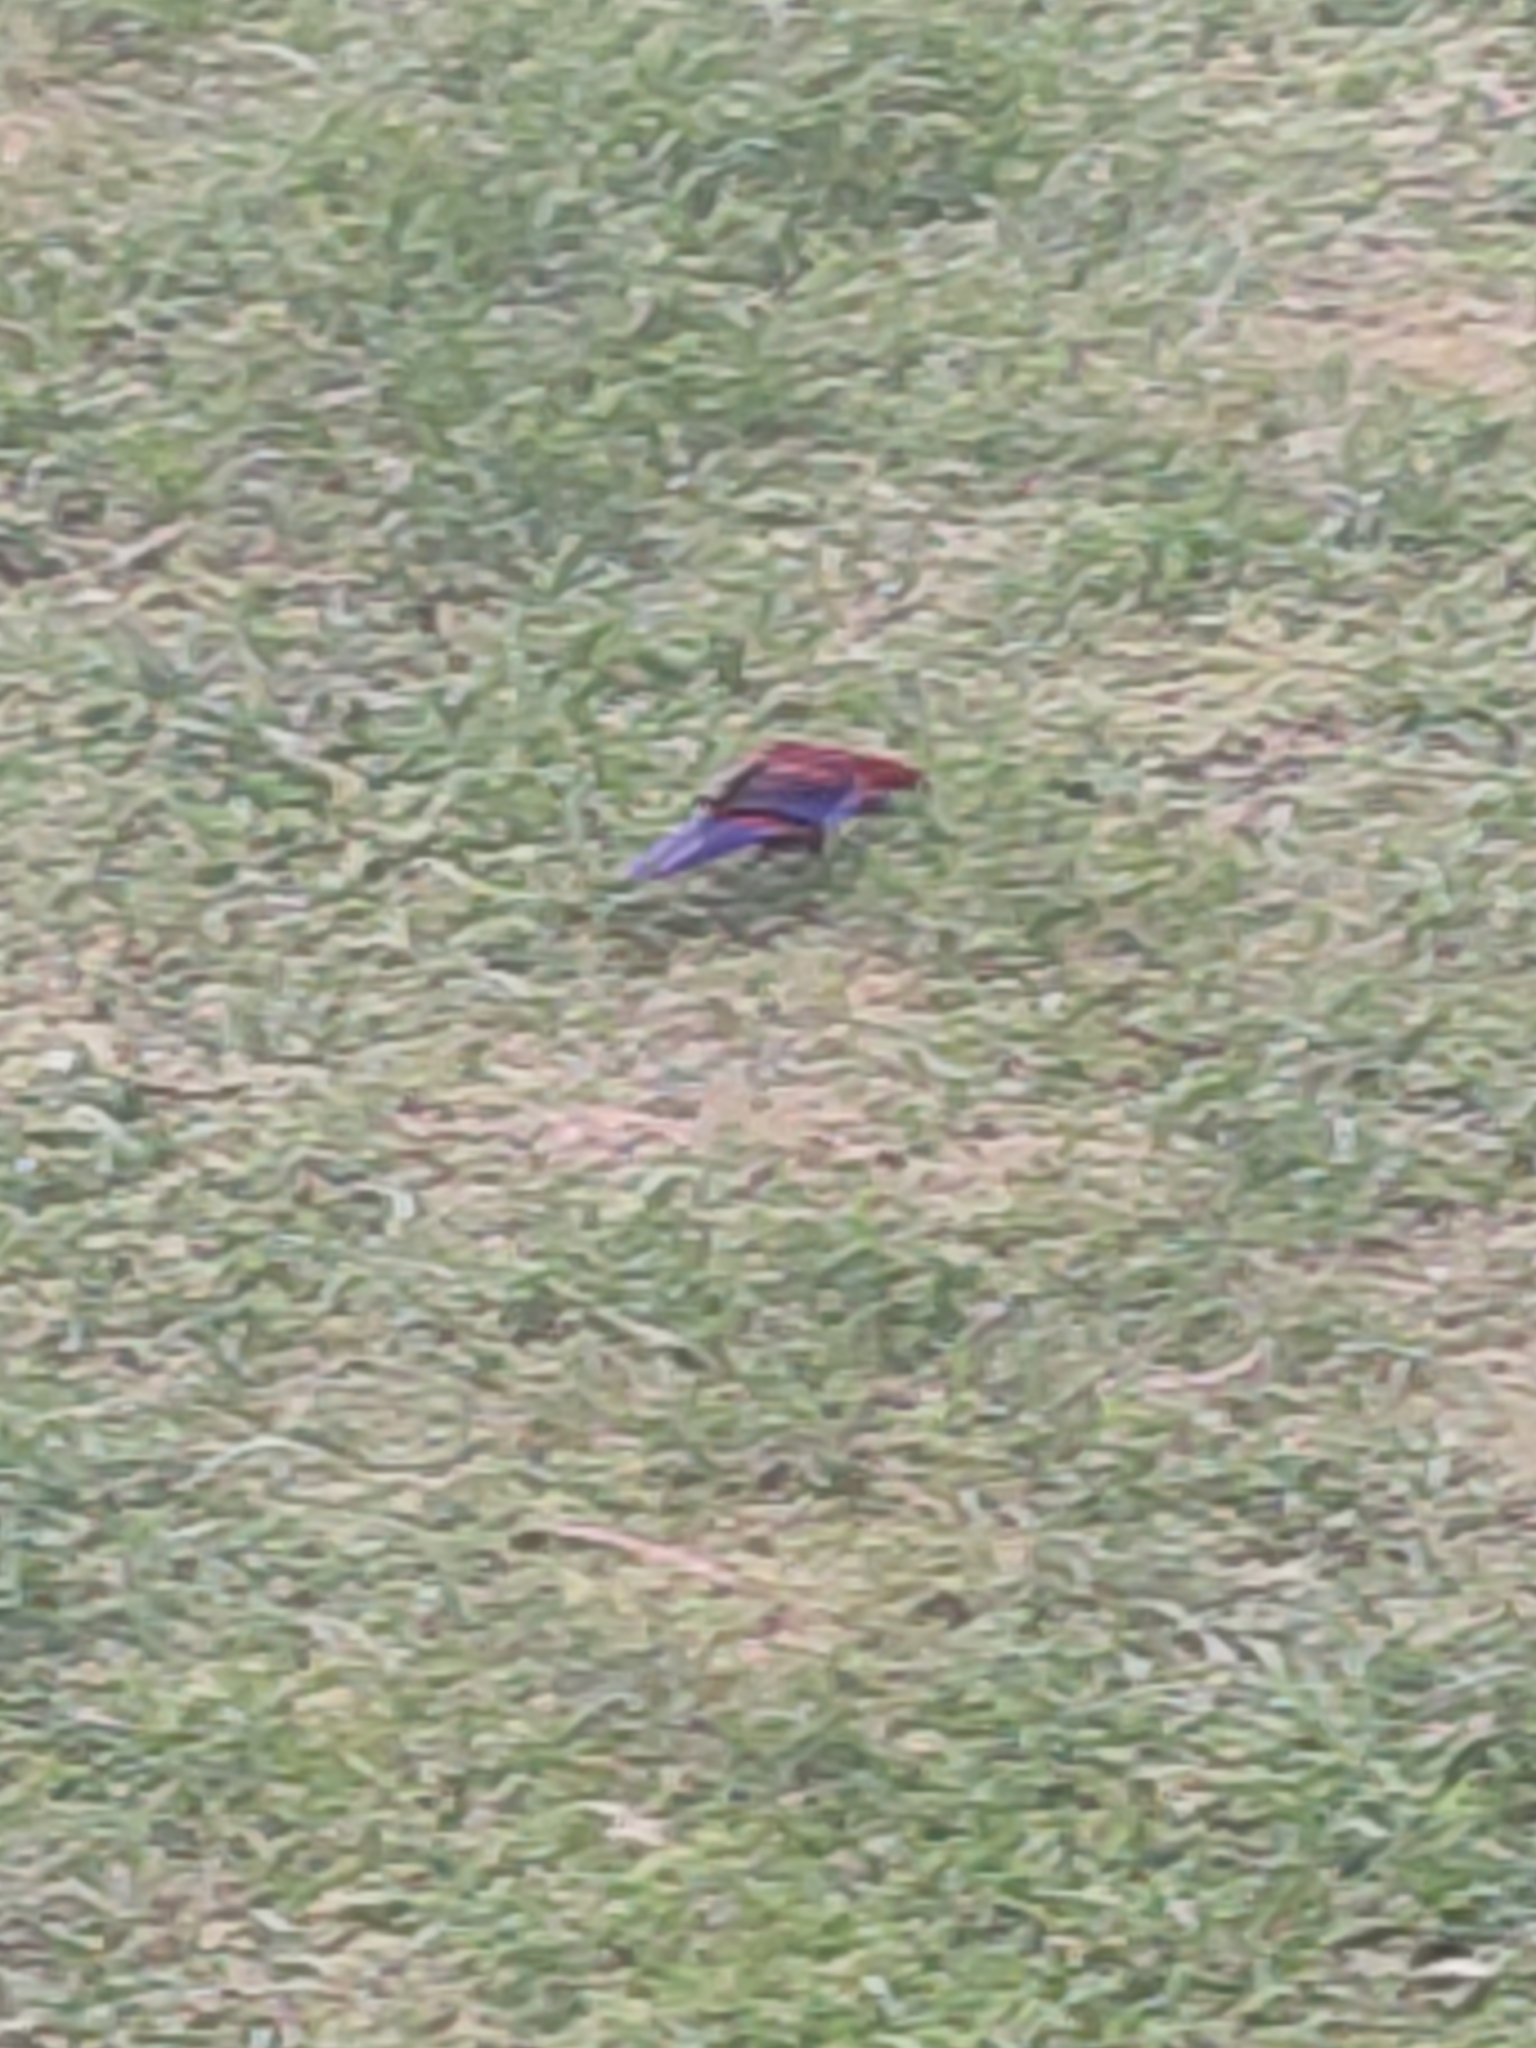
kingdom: Animalia
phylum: Chordata
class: Aves
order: Psittaciformes
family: Psittacidae
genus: Platycercus
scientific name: Platycercus elegans
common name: Crimson rosella
